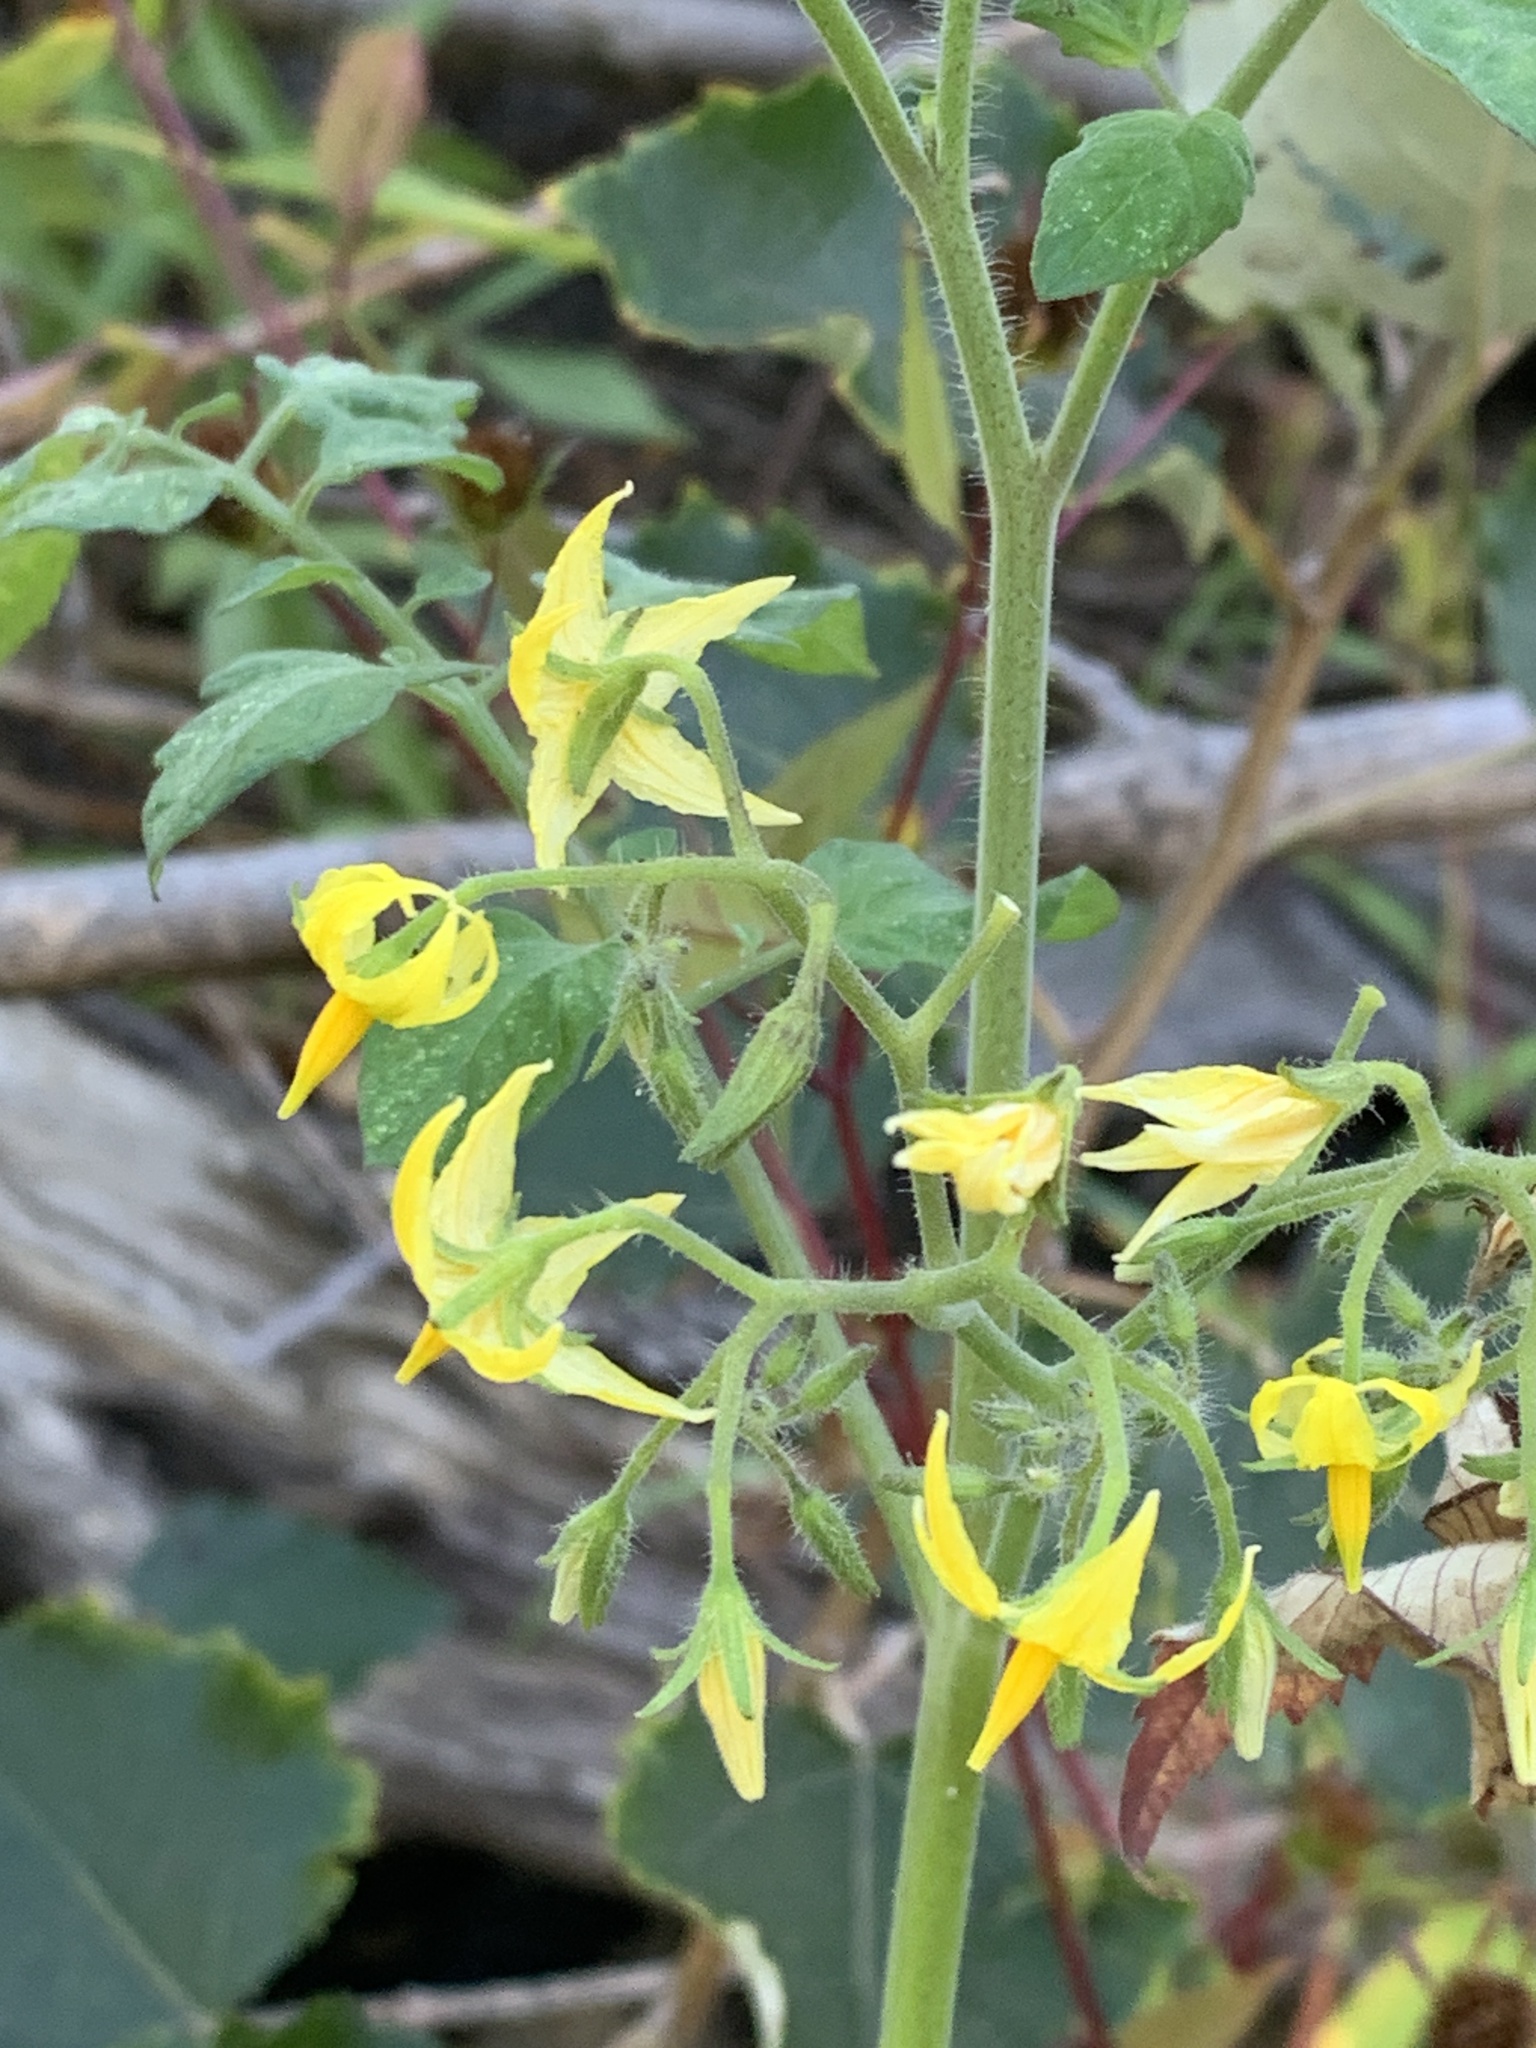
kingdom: Plantae
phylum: Tracheophyta
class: Magnoliopsida
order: Solanales
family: Solanaceae
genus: Solanum
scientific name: Solanum lycopersicum
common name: Garden tomato
